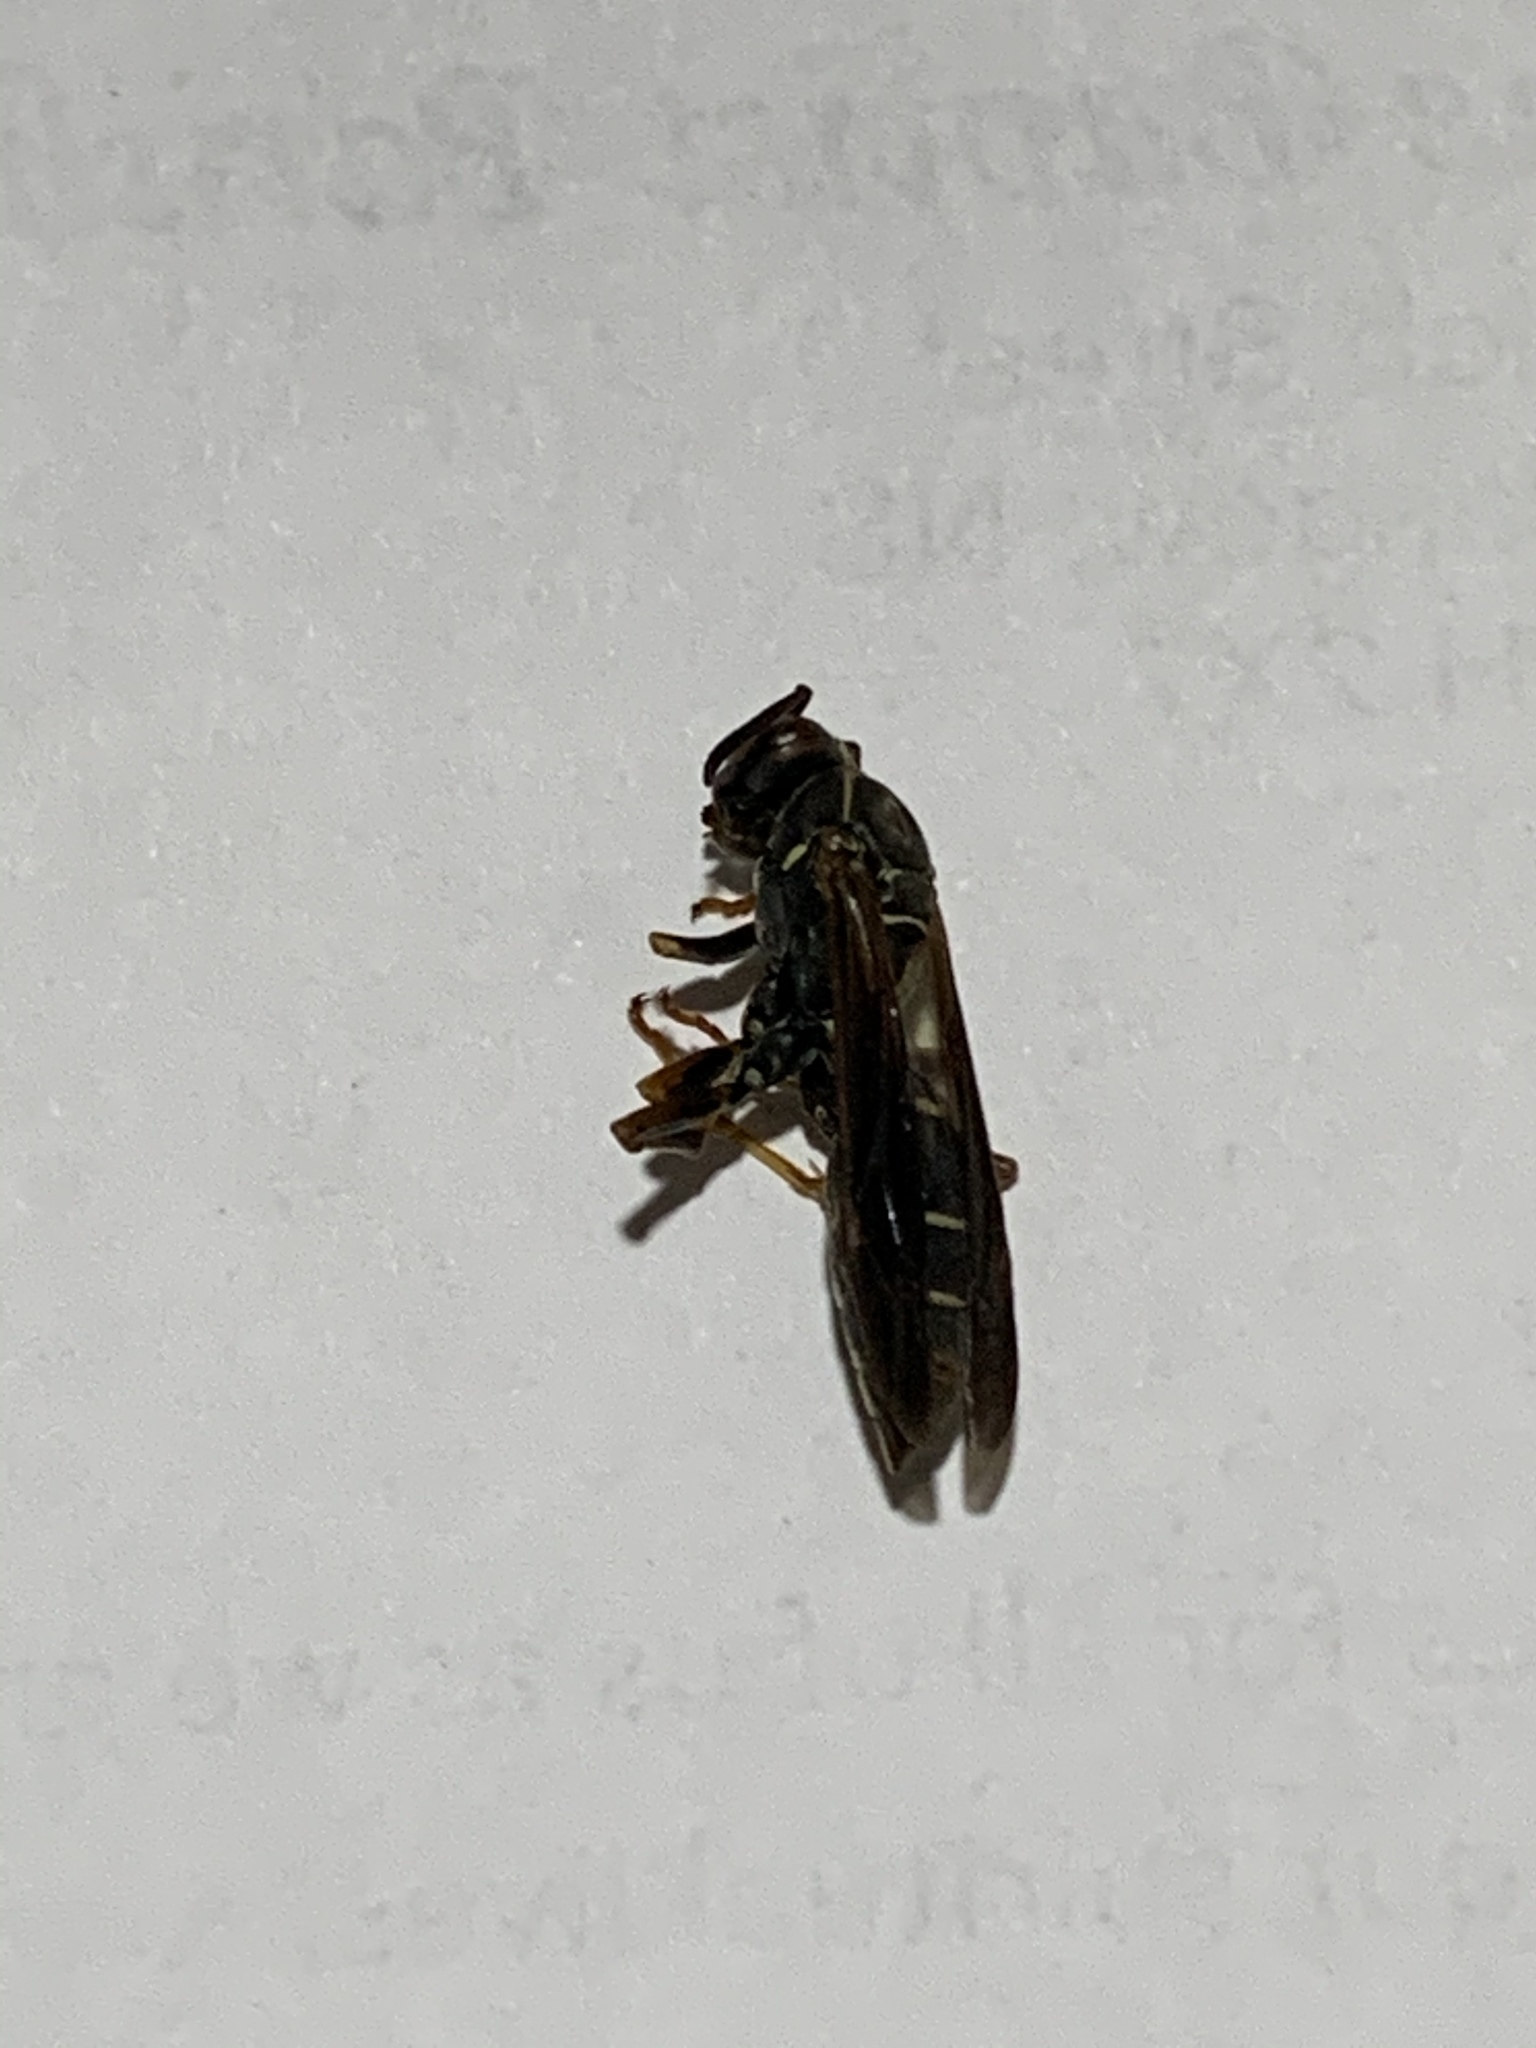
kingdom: Animalia
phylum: Arthropoda
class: Insecta
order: Hymenoptera
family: Eumenidae
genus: Polistes
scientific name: Polistes fuscatus
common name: Dark paper wasp
